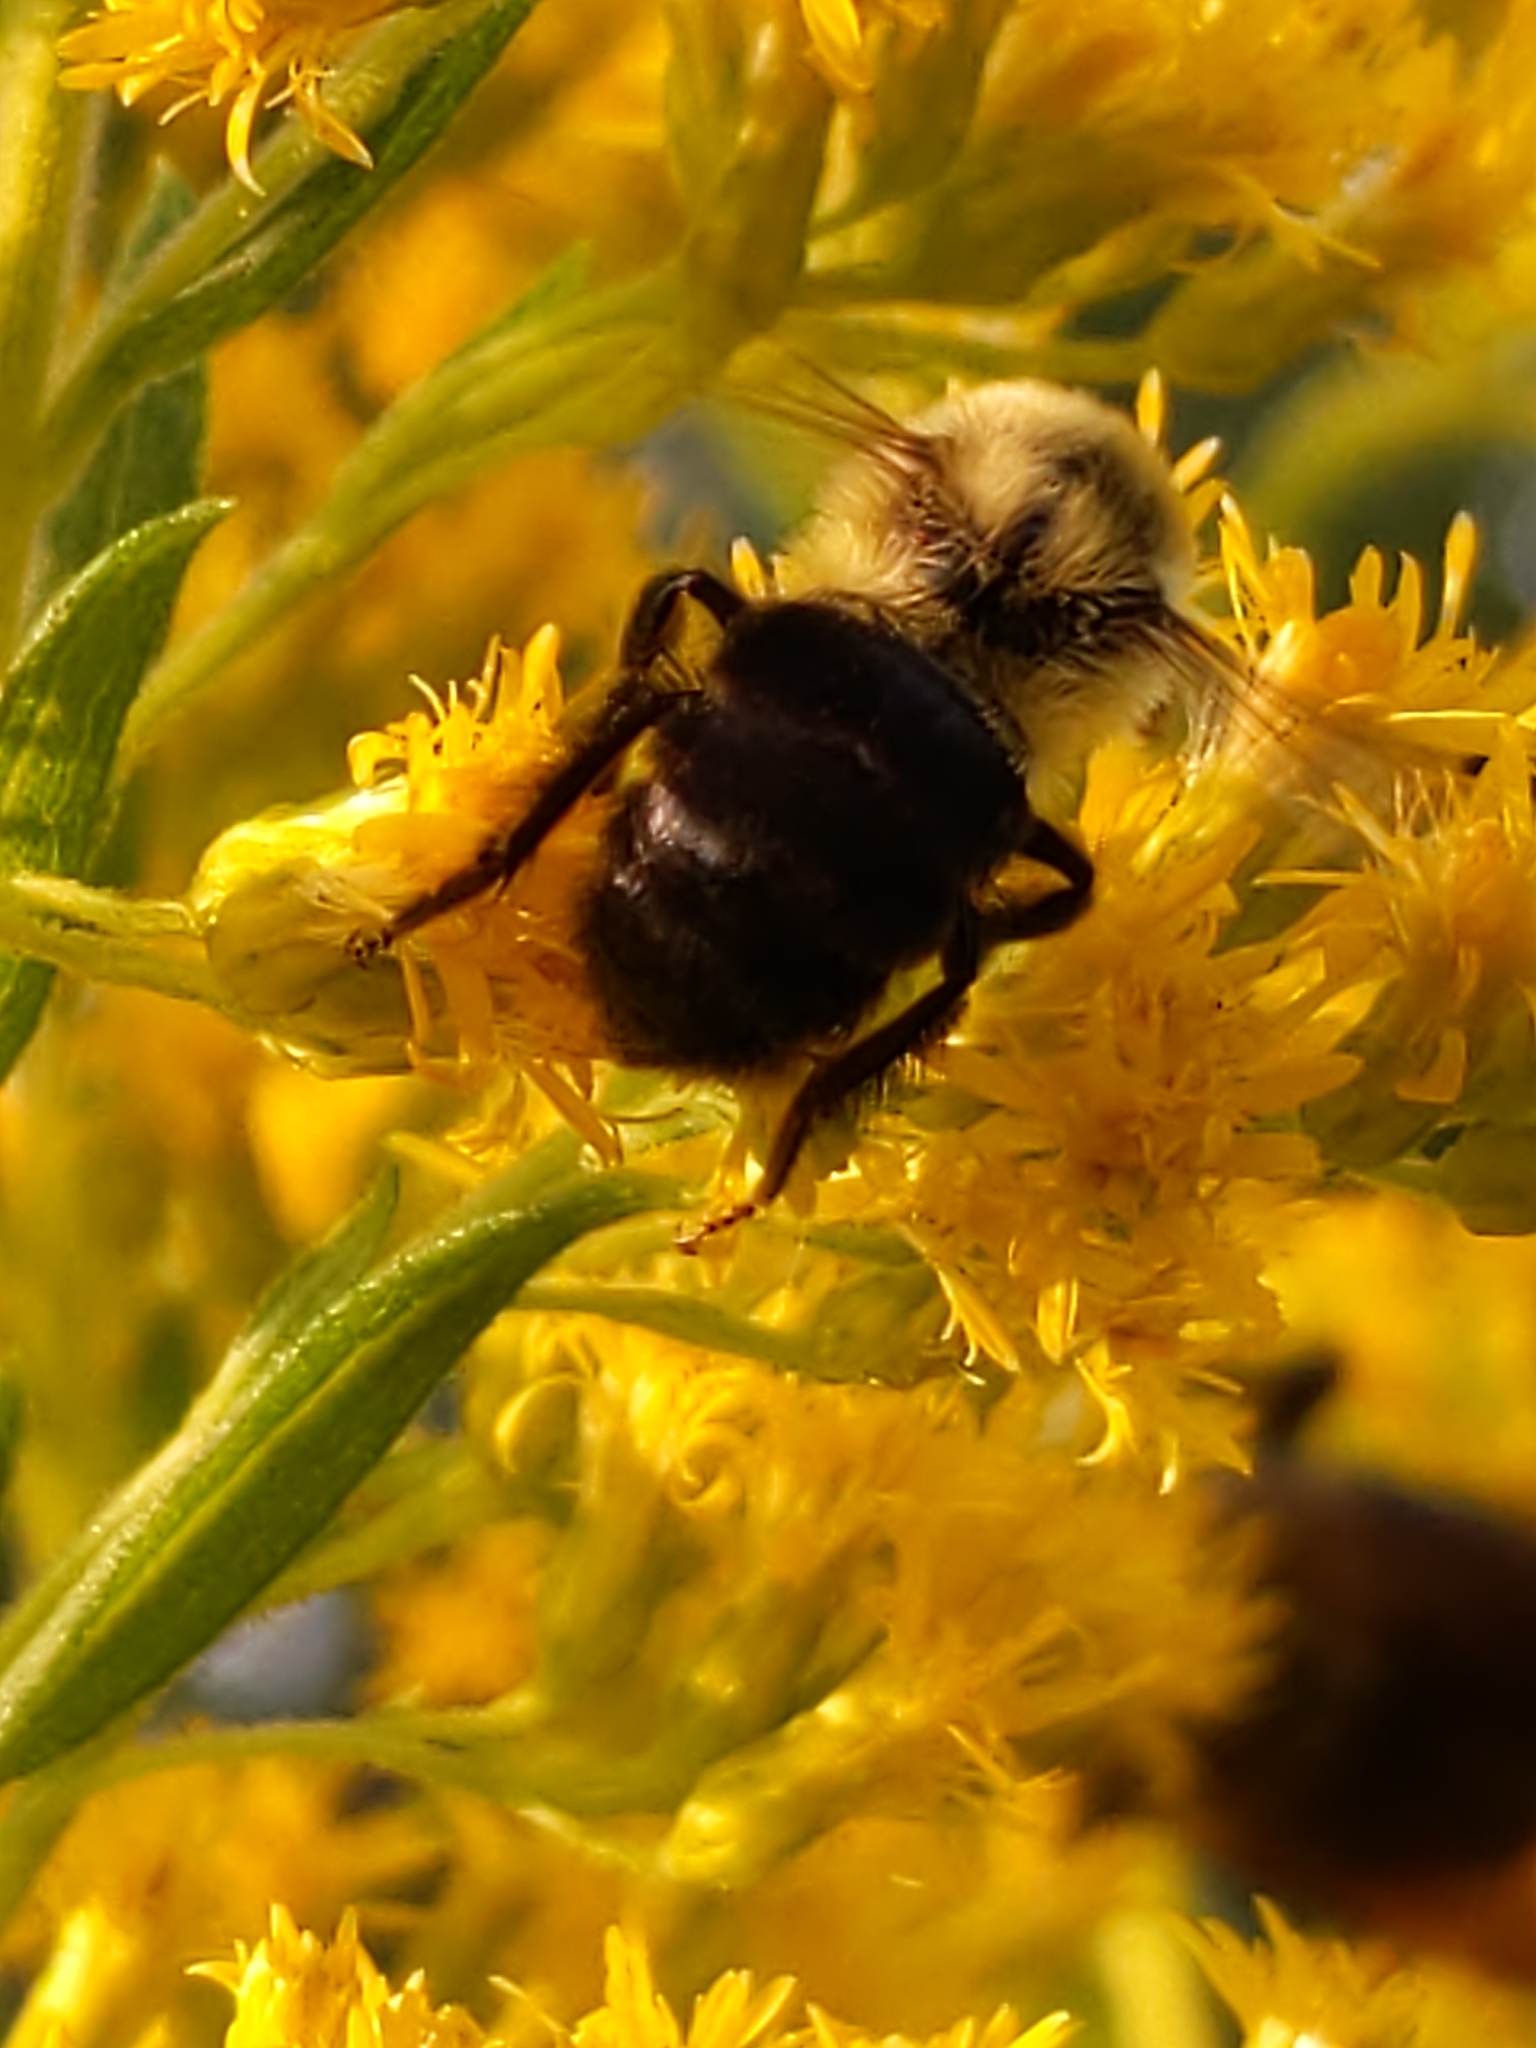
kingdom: Animalia
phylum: Arthropoda
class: Insecta
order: Hymenoptera
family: Apidae
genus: Bombus
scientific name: Bombus impatiens
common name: Common eastern bumble bee
